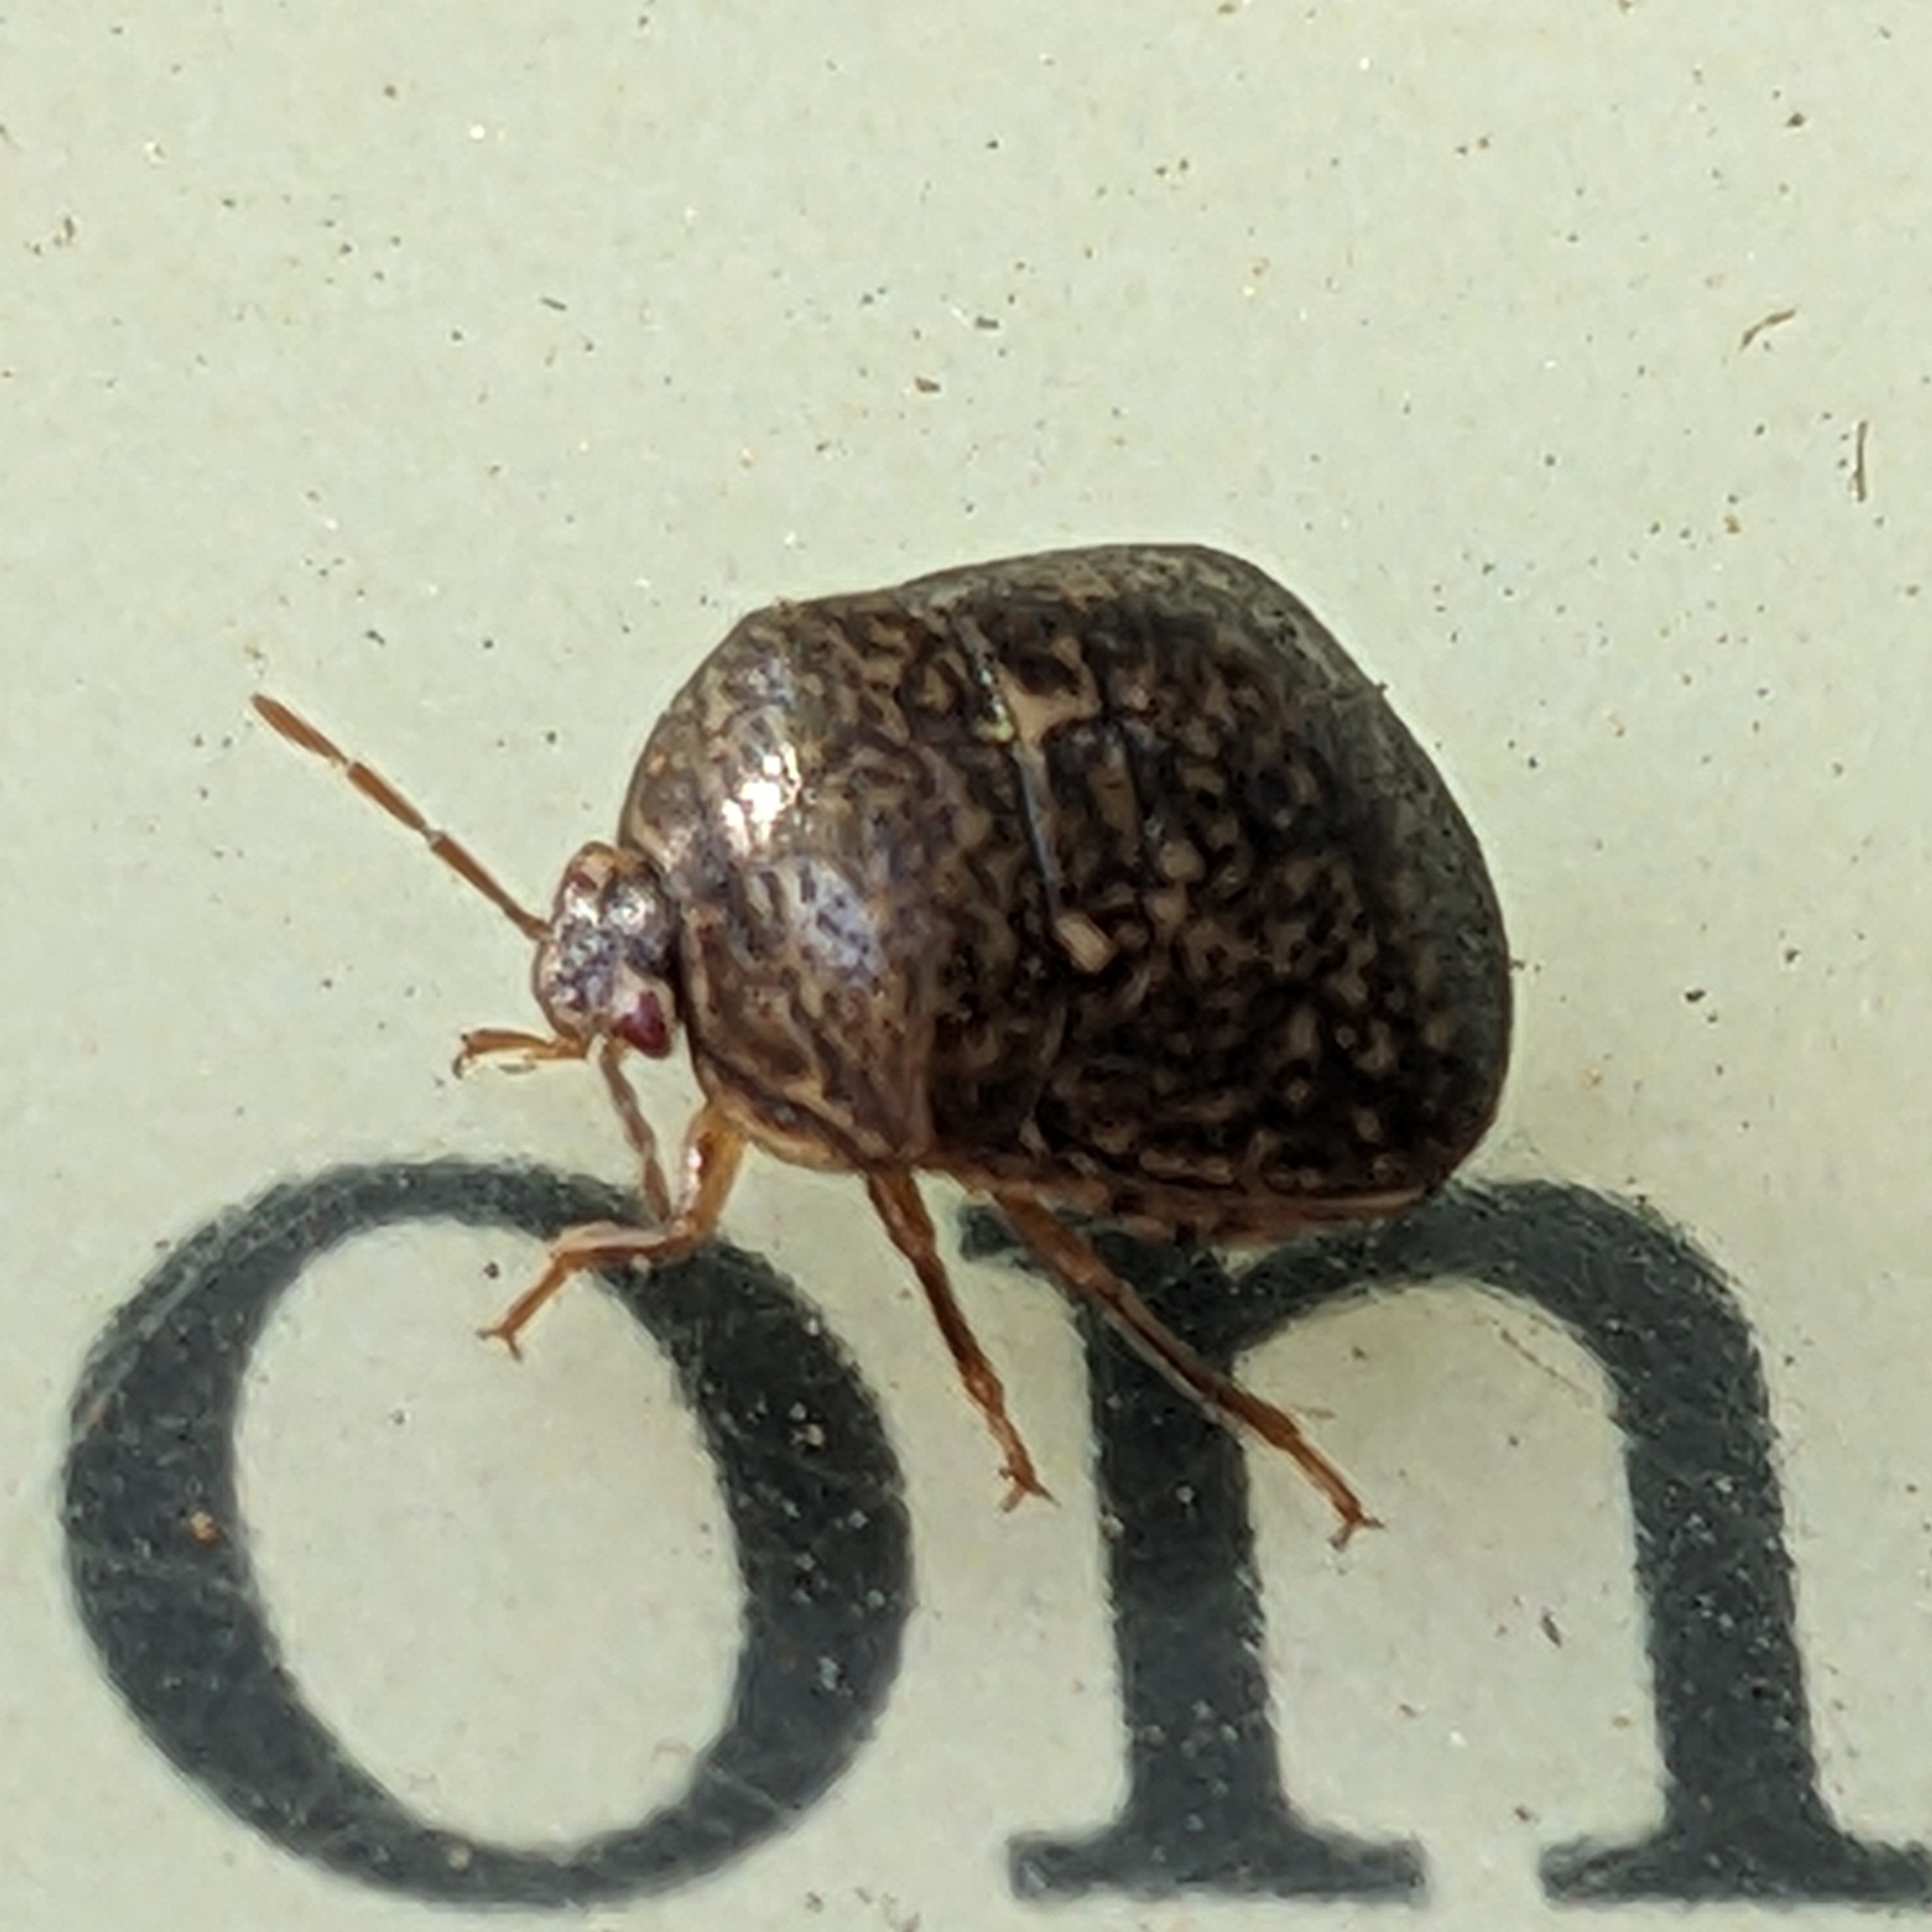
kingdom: Animalia
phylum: Arthropoda
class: Insecta
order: Hemiptera
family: Plataspidae
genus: Megacopta
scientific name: Megacopta cribraria
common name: Bean plataspid
